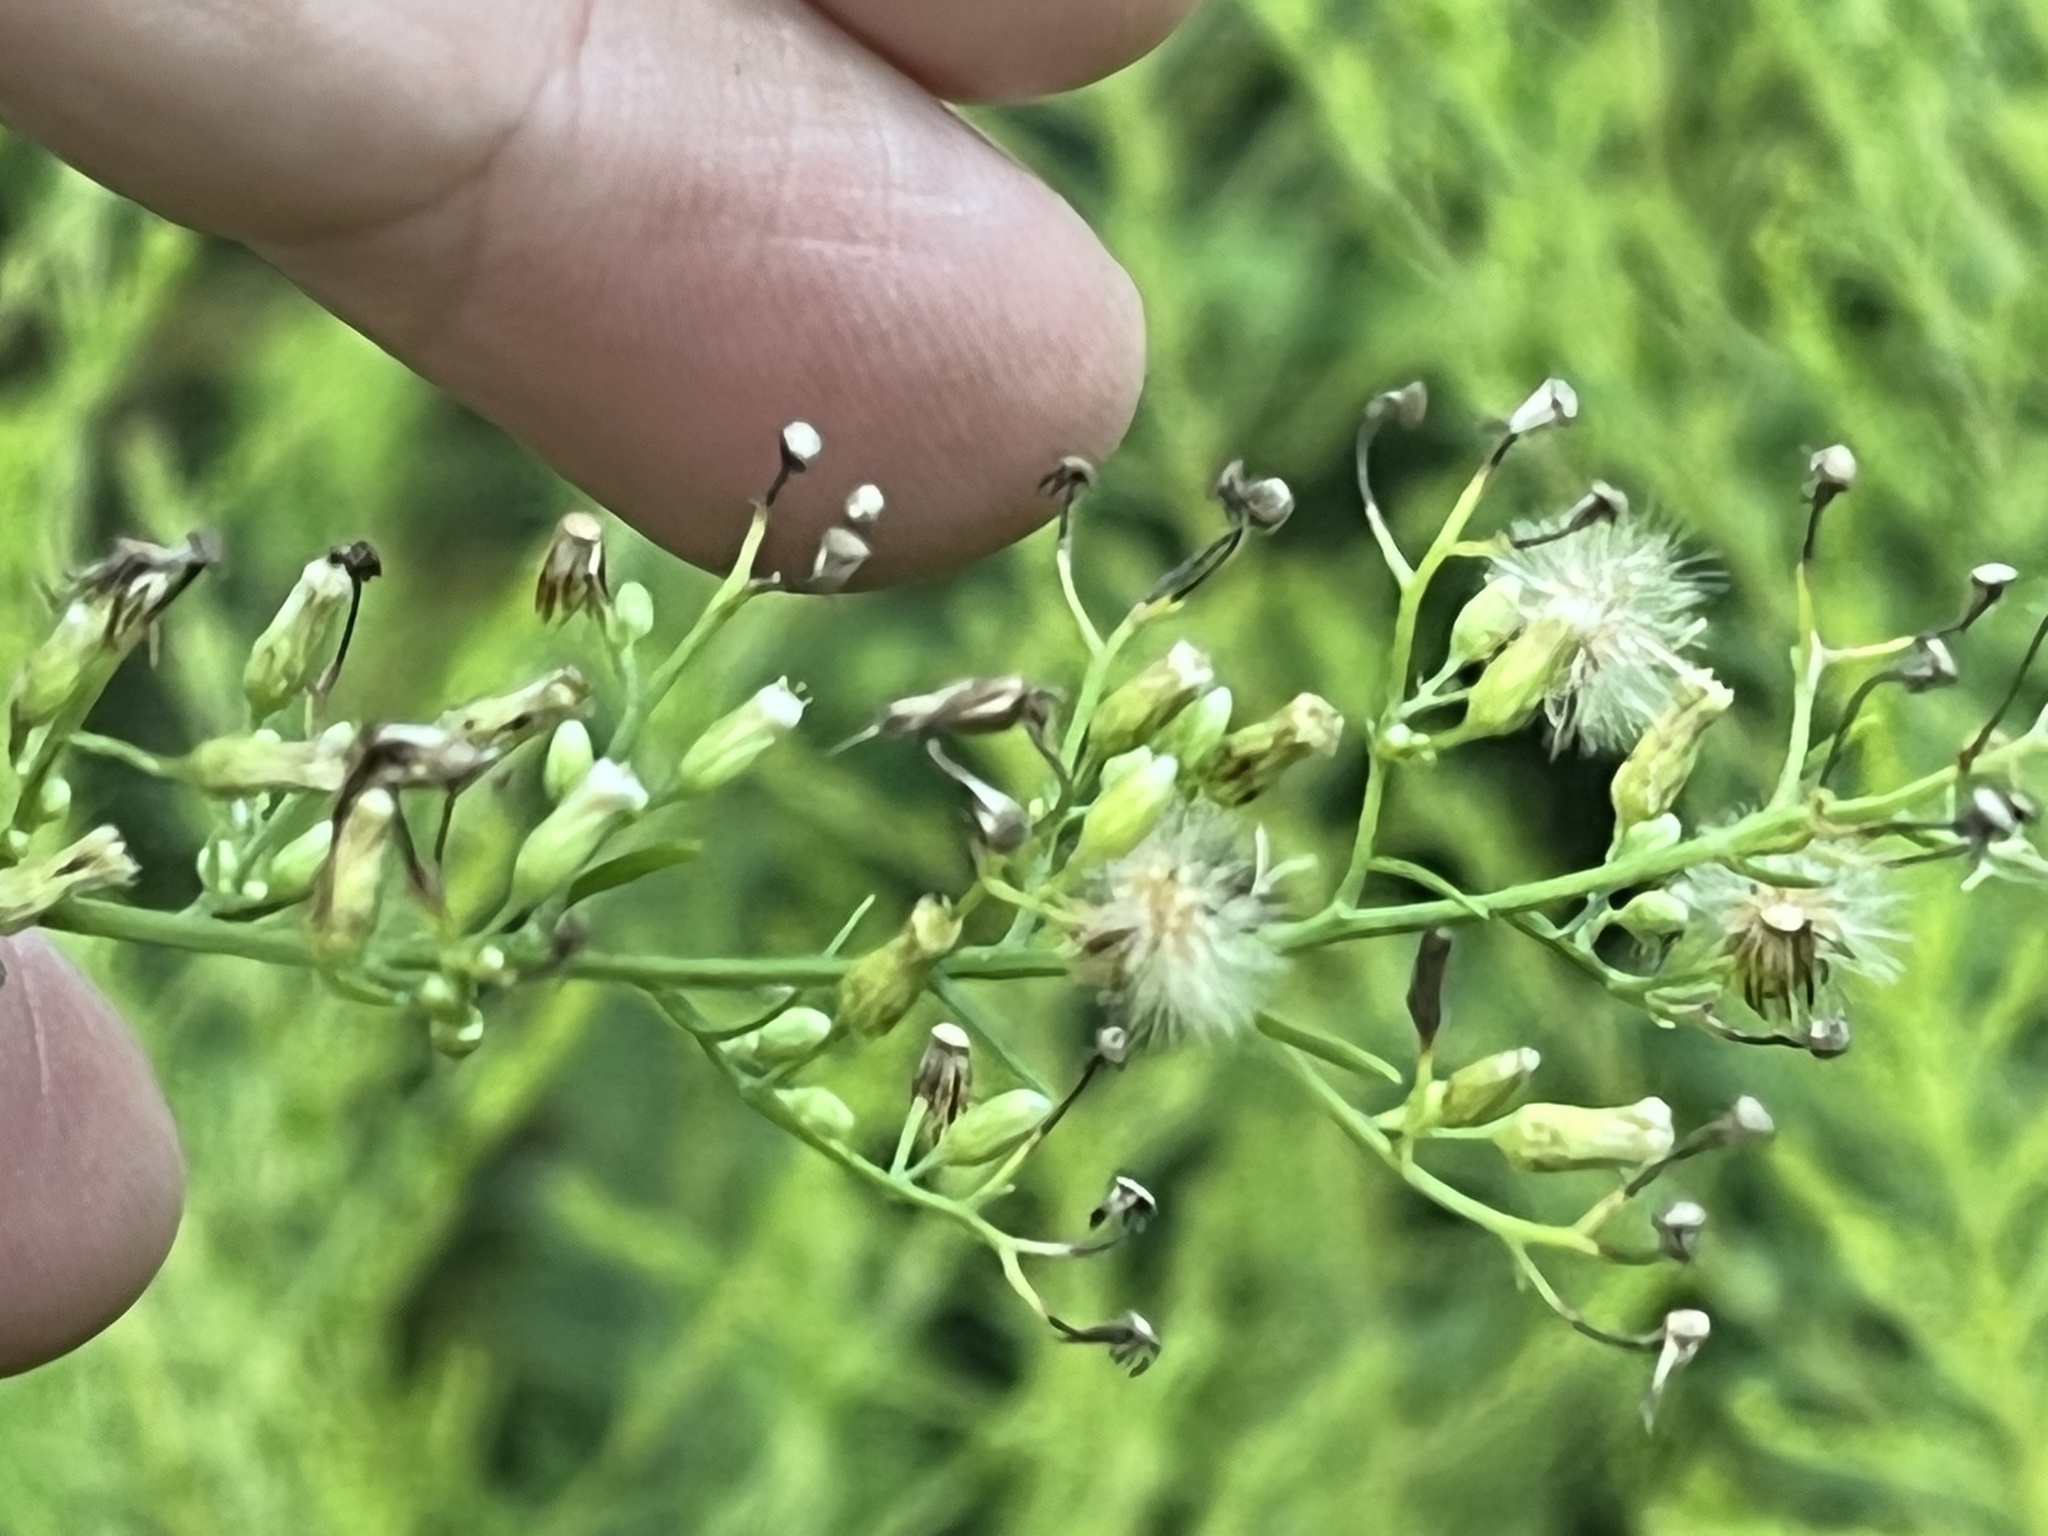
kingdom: Plantae
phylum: Tracheophyta
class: Magnoliopsida
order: Asterales
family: Asteraceae
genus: Erigeron
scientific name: Erigeron canadensis
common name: Canadian fleabane
